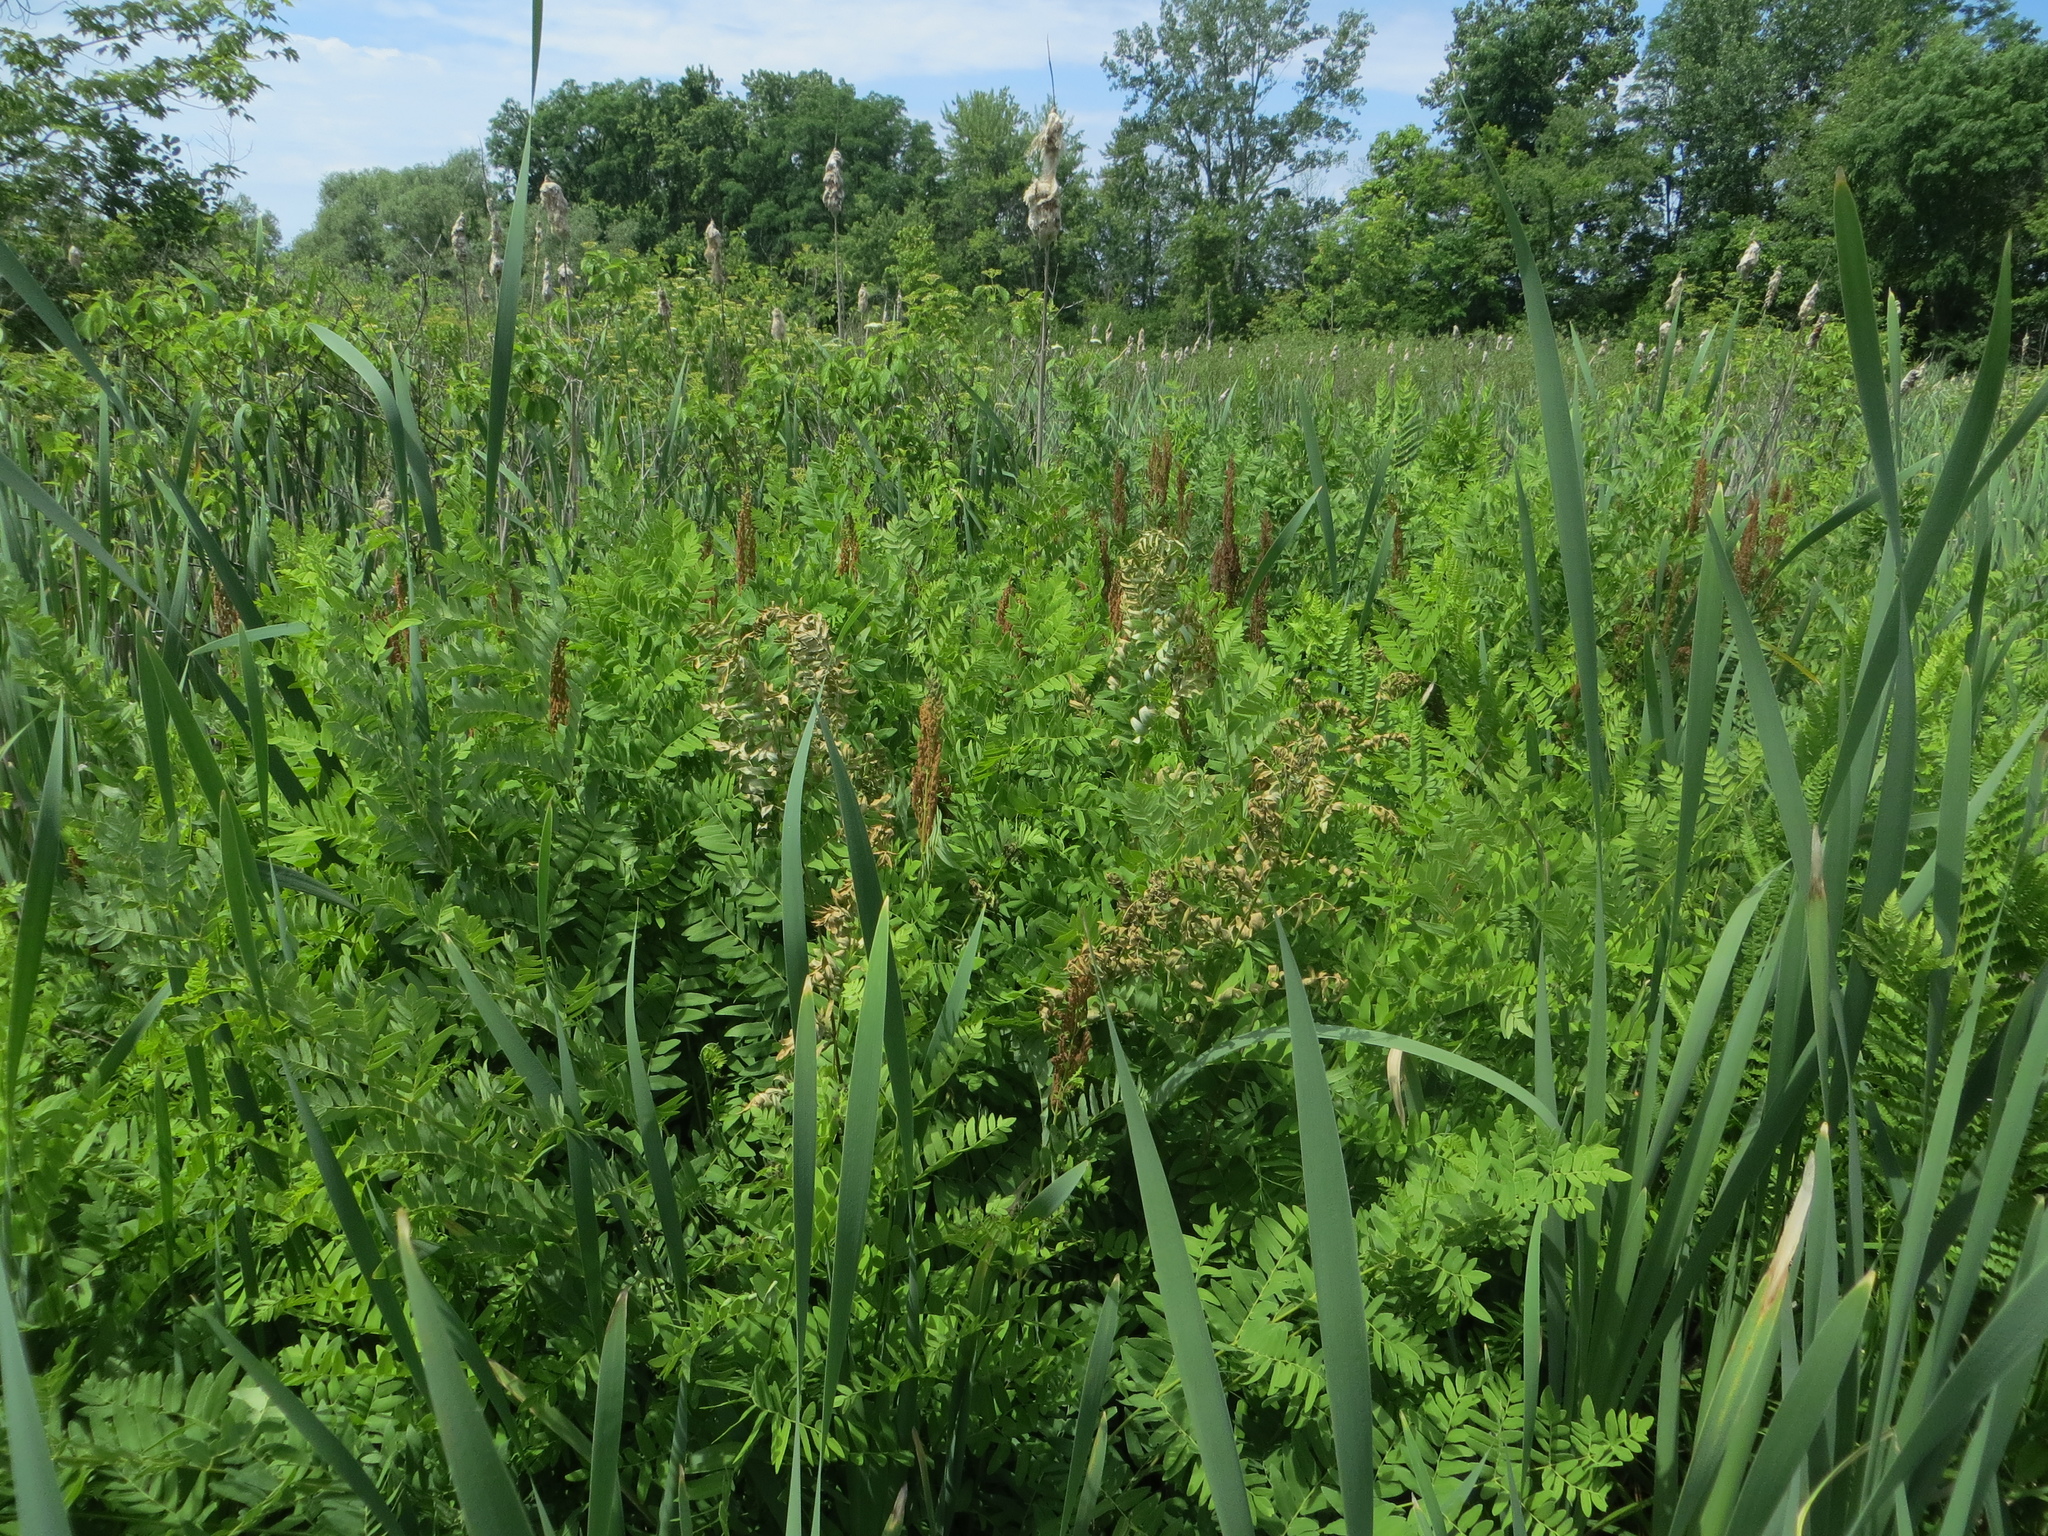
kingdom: Plantae
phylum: Tracheophyta
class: Polypodiopsida
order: Osmundales
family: Osmundaceae
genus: Osmunda
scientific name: Osmunda spectabilis
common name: American royal fern
